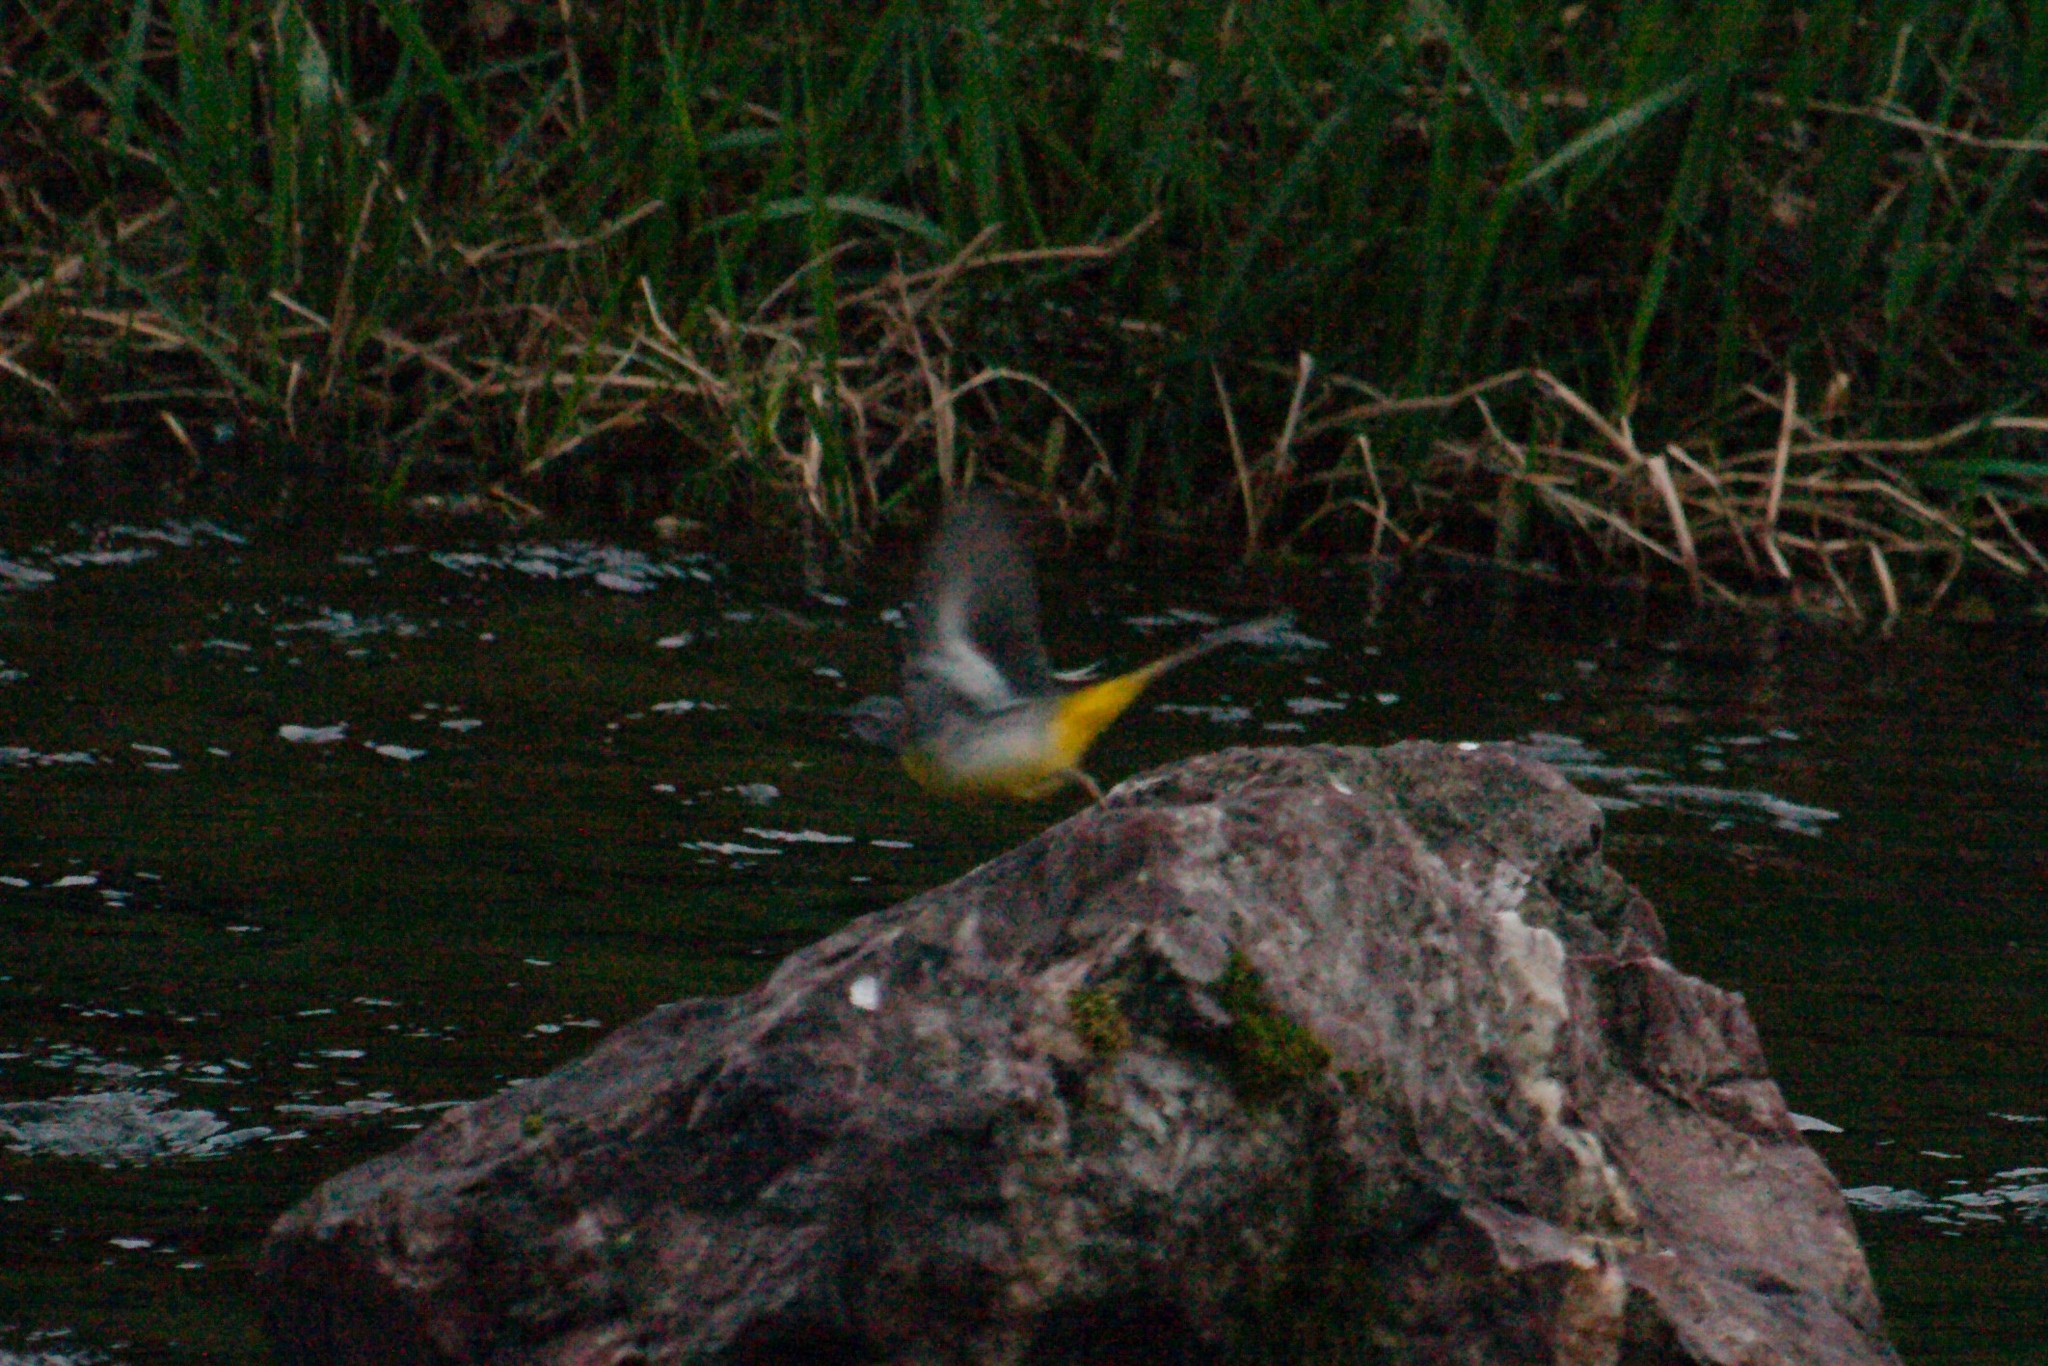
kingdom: Animalia
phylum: Chordata
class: Aves
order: Passeriformes
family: Motacillidae
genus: Motacilla
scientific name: Motacilla cinerea
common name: Grey wagtail
